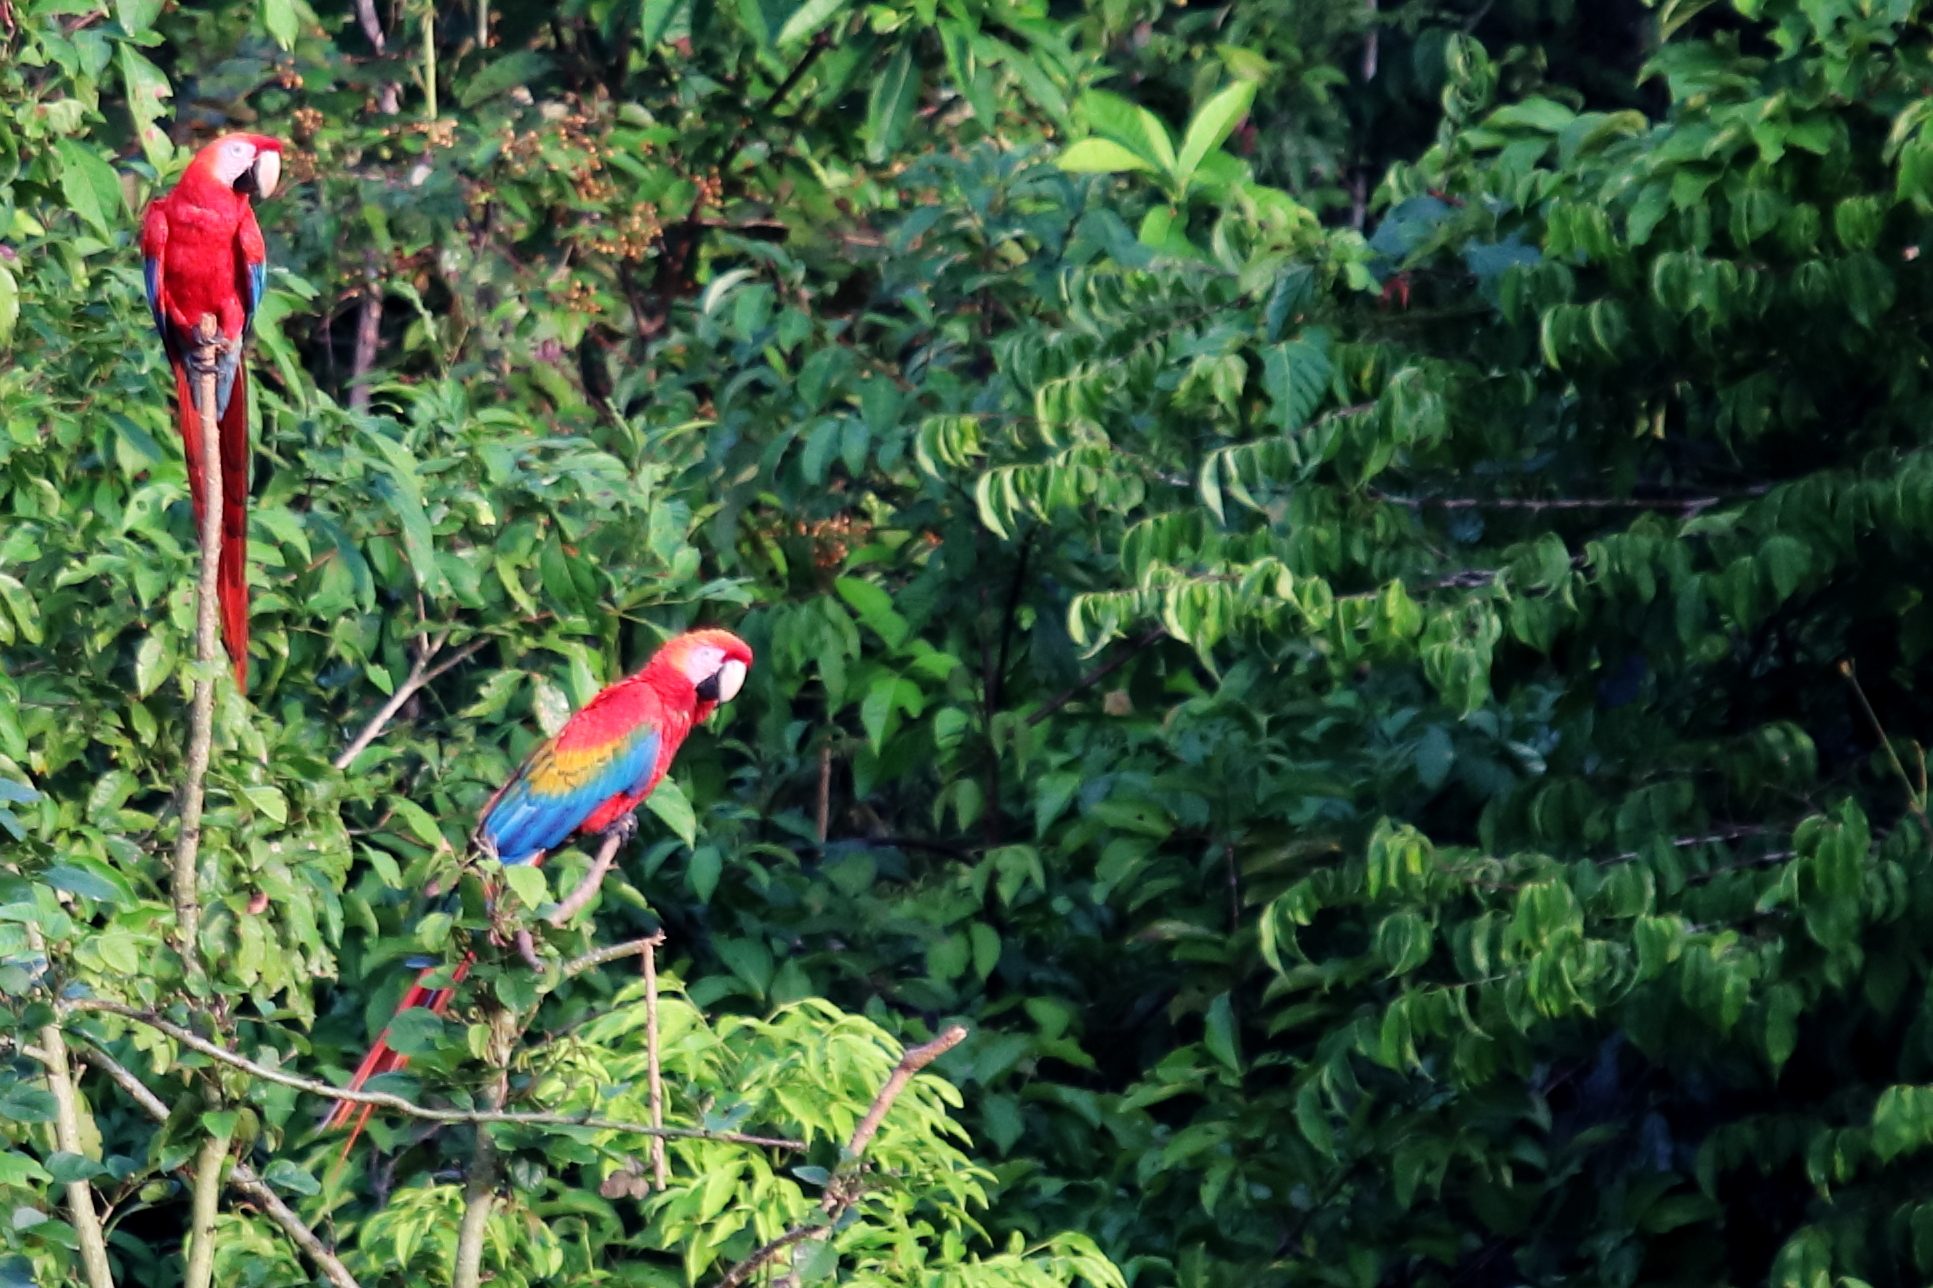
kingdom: Animalia
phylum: Chordata
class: Aves
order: Psittaciformes
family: Psittacidae
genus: Ara
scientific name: Ara macao
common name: Scarlet macaw
